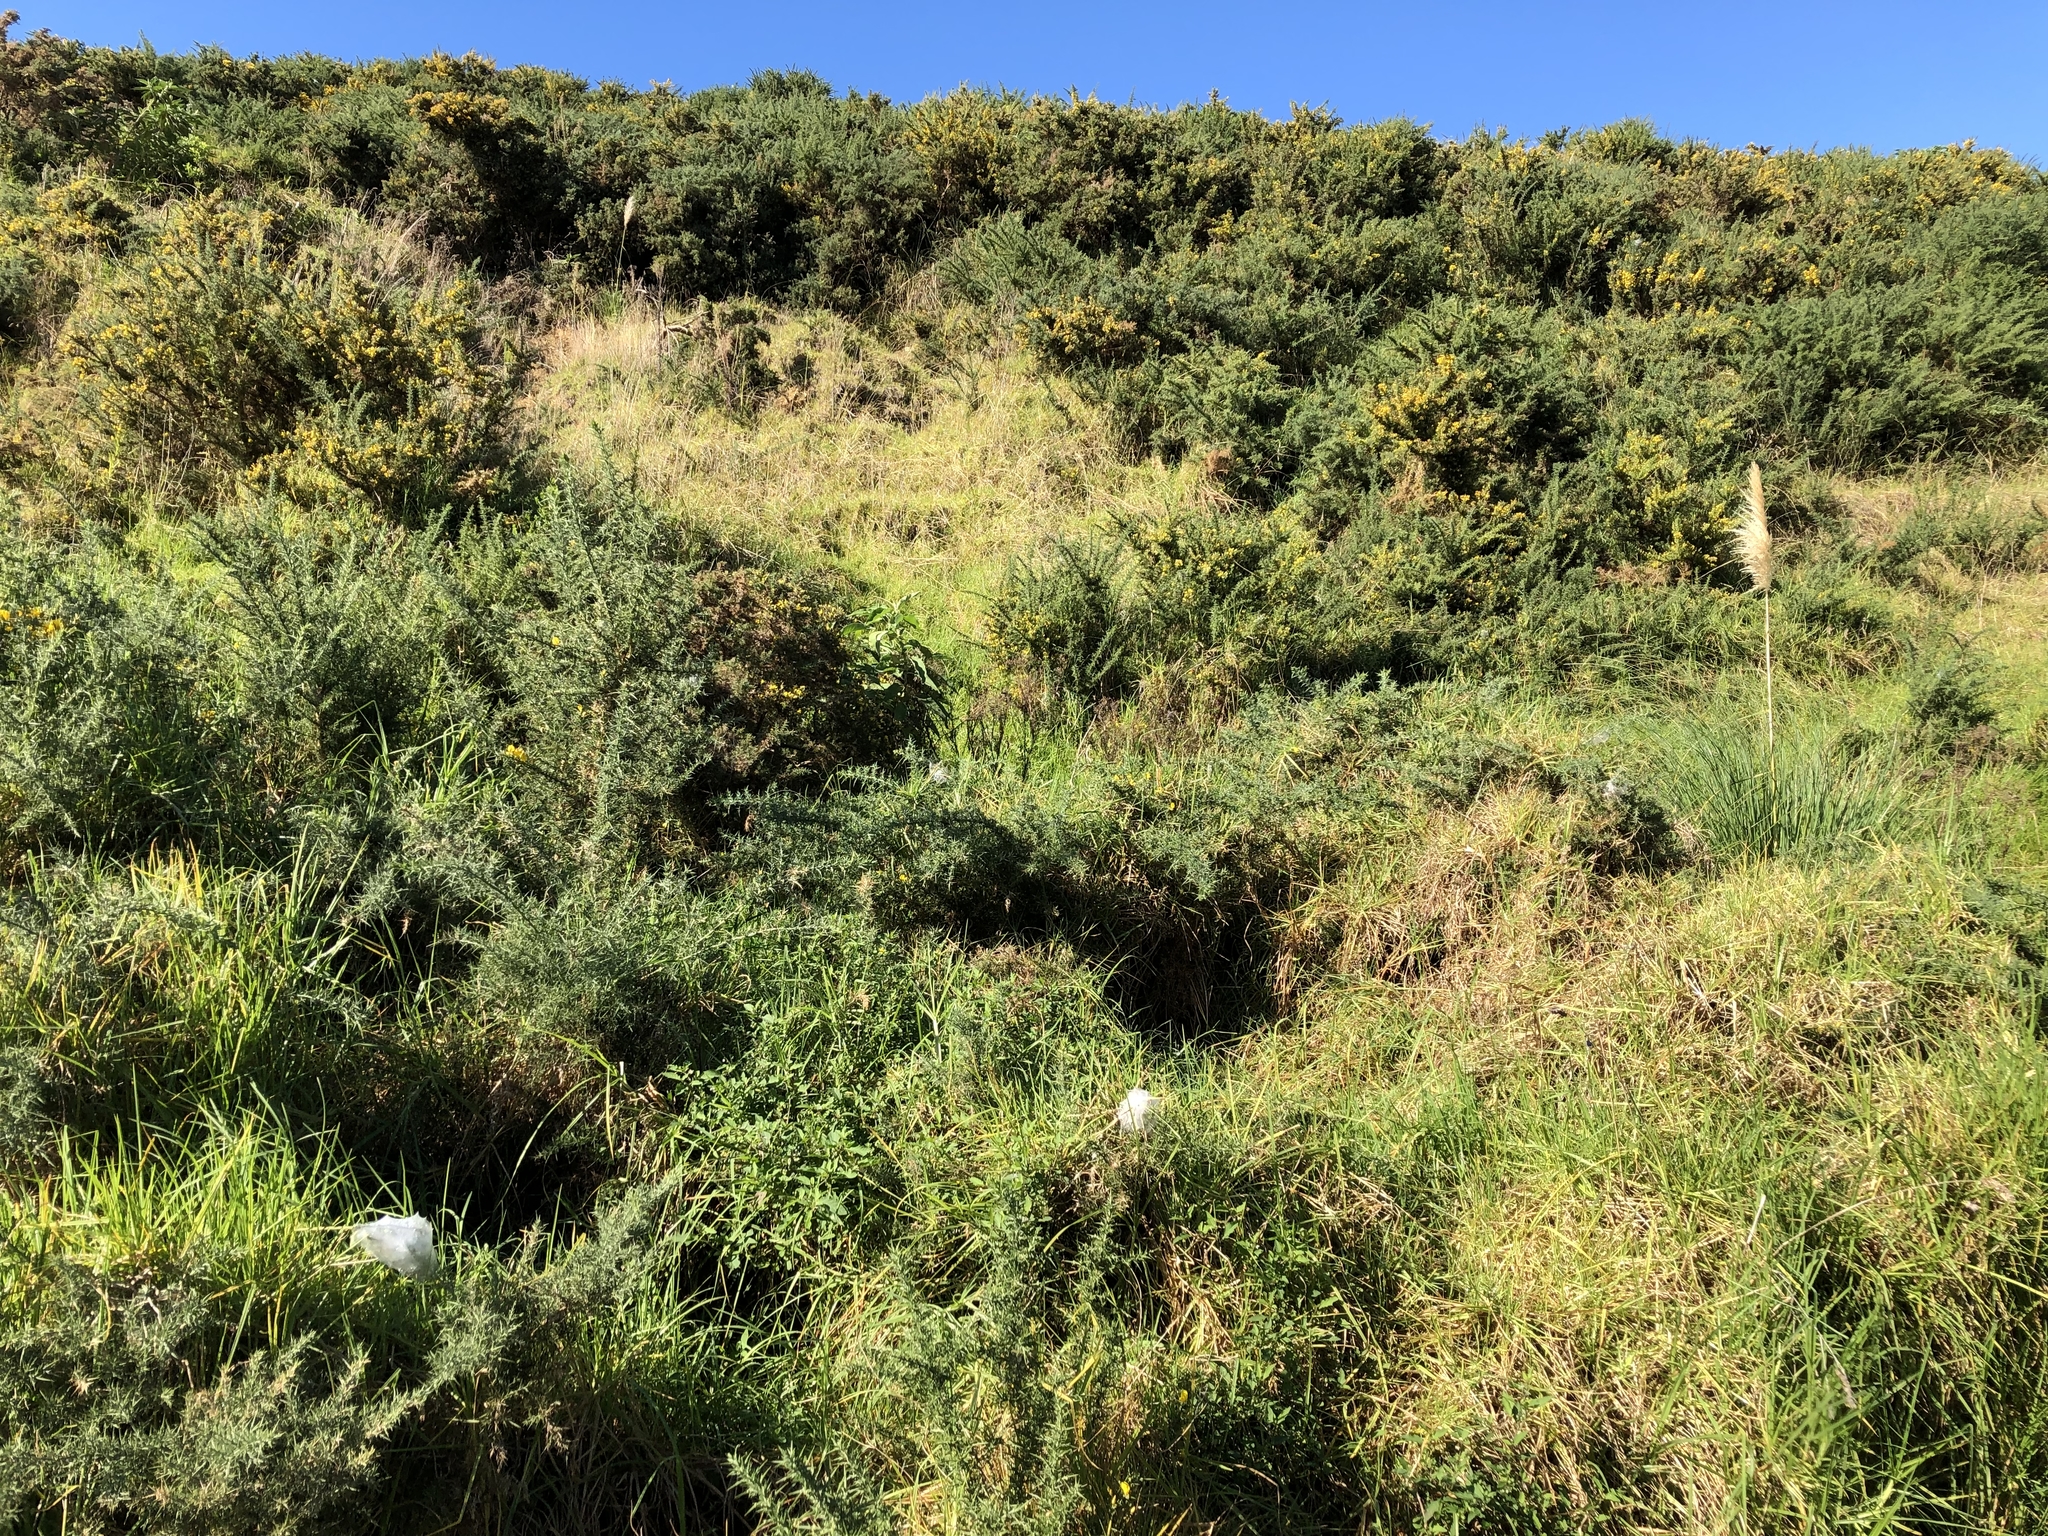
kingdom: Plantae
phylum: Tracheophyta
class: Magnoliopsida
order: Fabales
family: Fabaceae
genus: Ulex
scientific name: Ulex europaeus
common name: Common gorse
